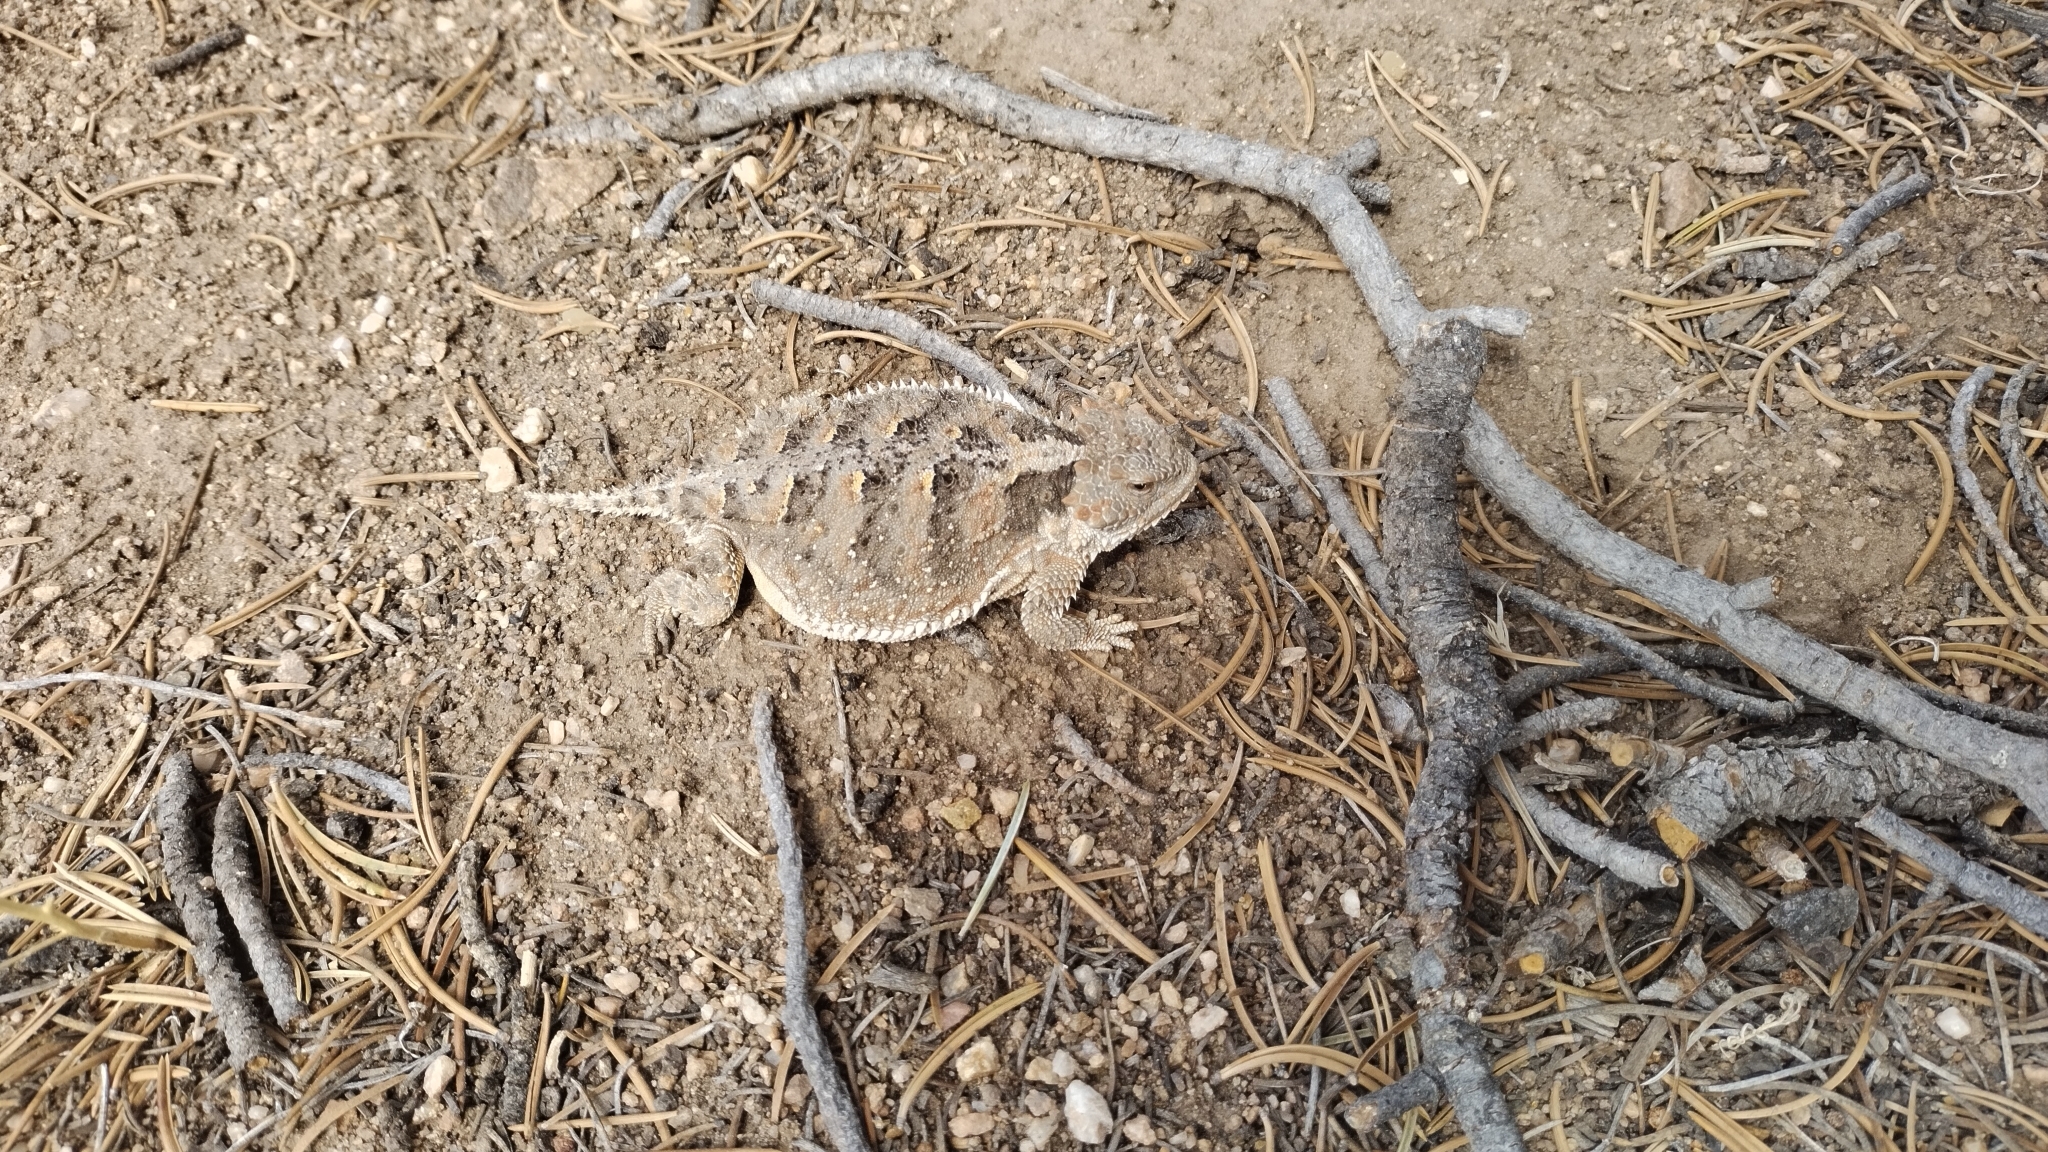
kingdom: Animalia
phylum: Chordata
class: Squamata
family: Phrynosomatidae
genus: Phrynosoma
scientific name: Phrynosoma hernandesi
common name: Greater short-horned lizard
